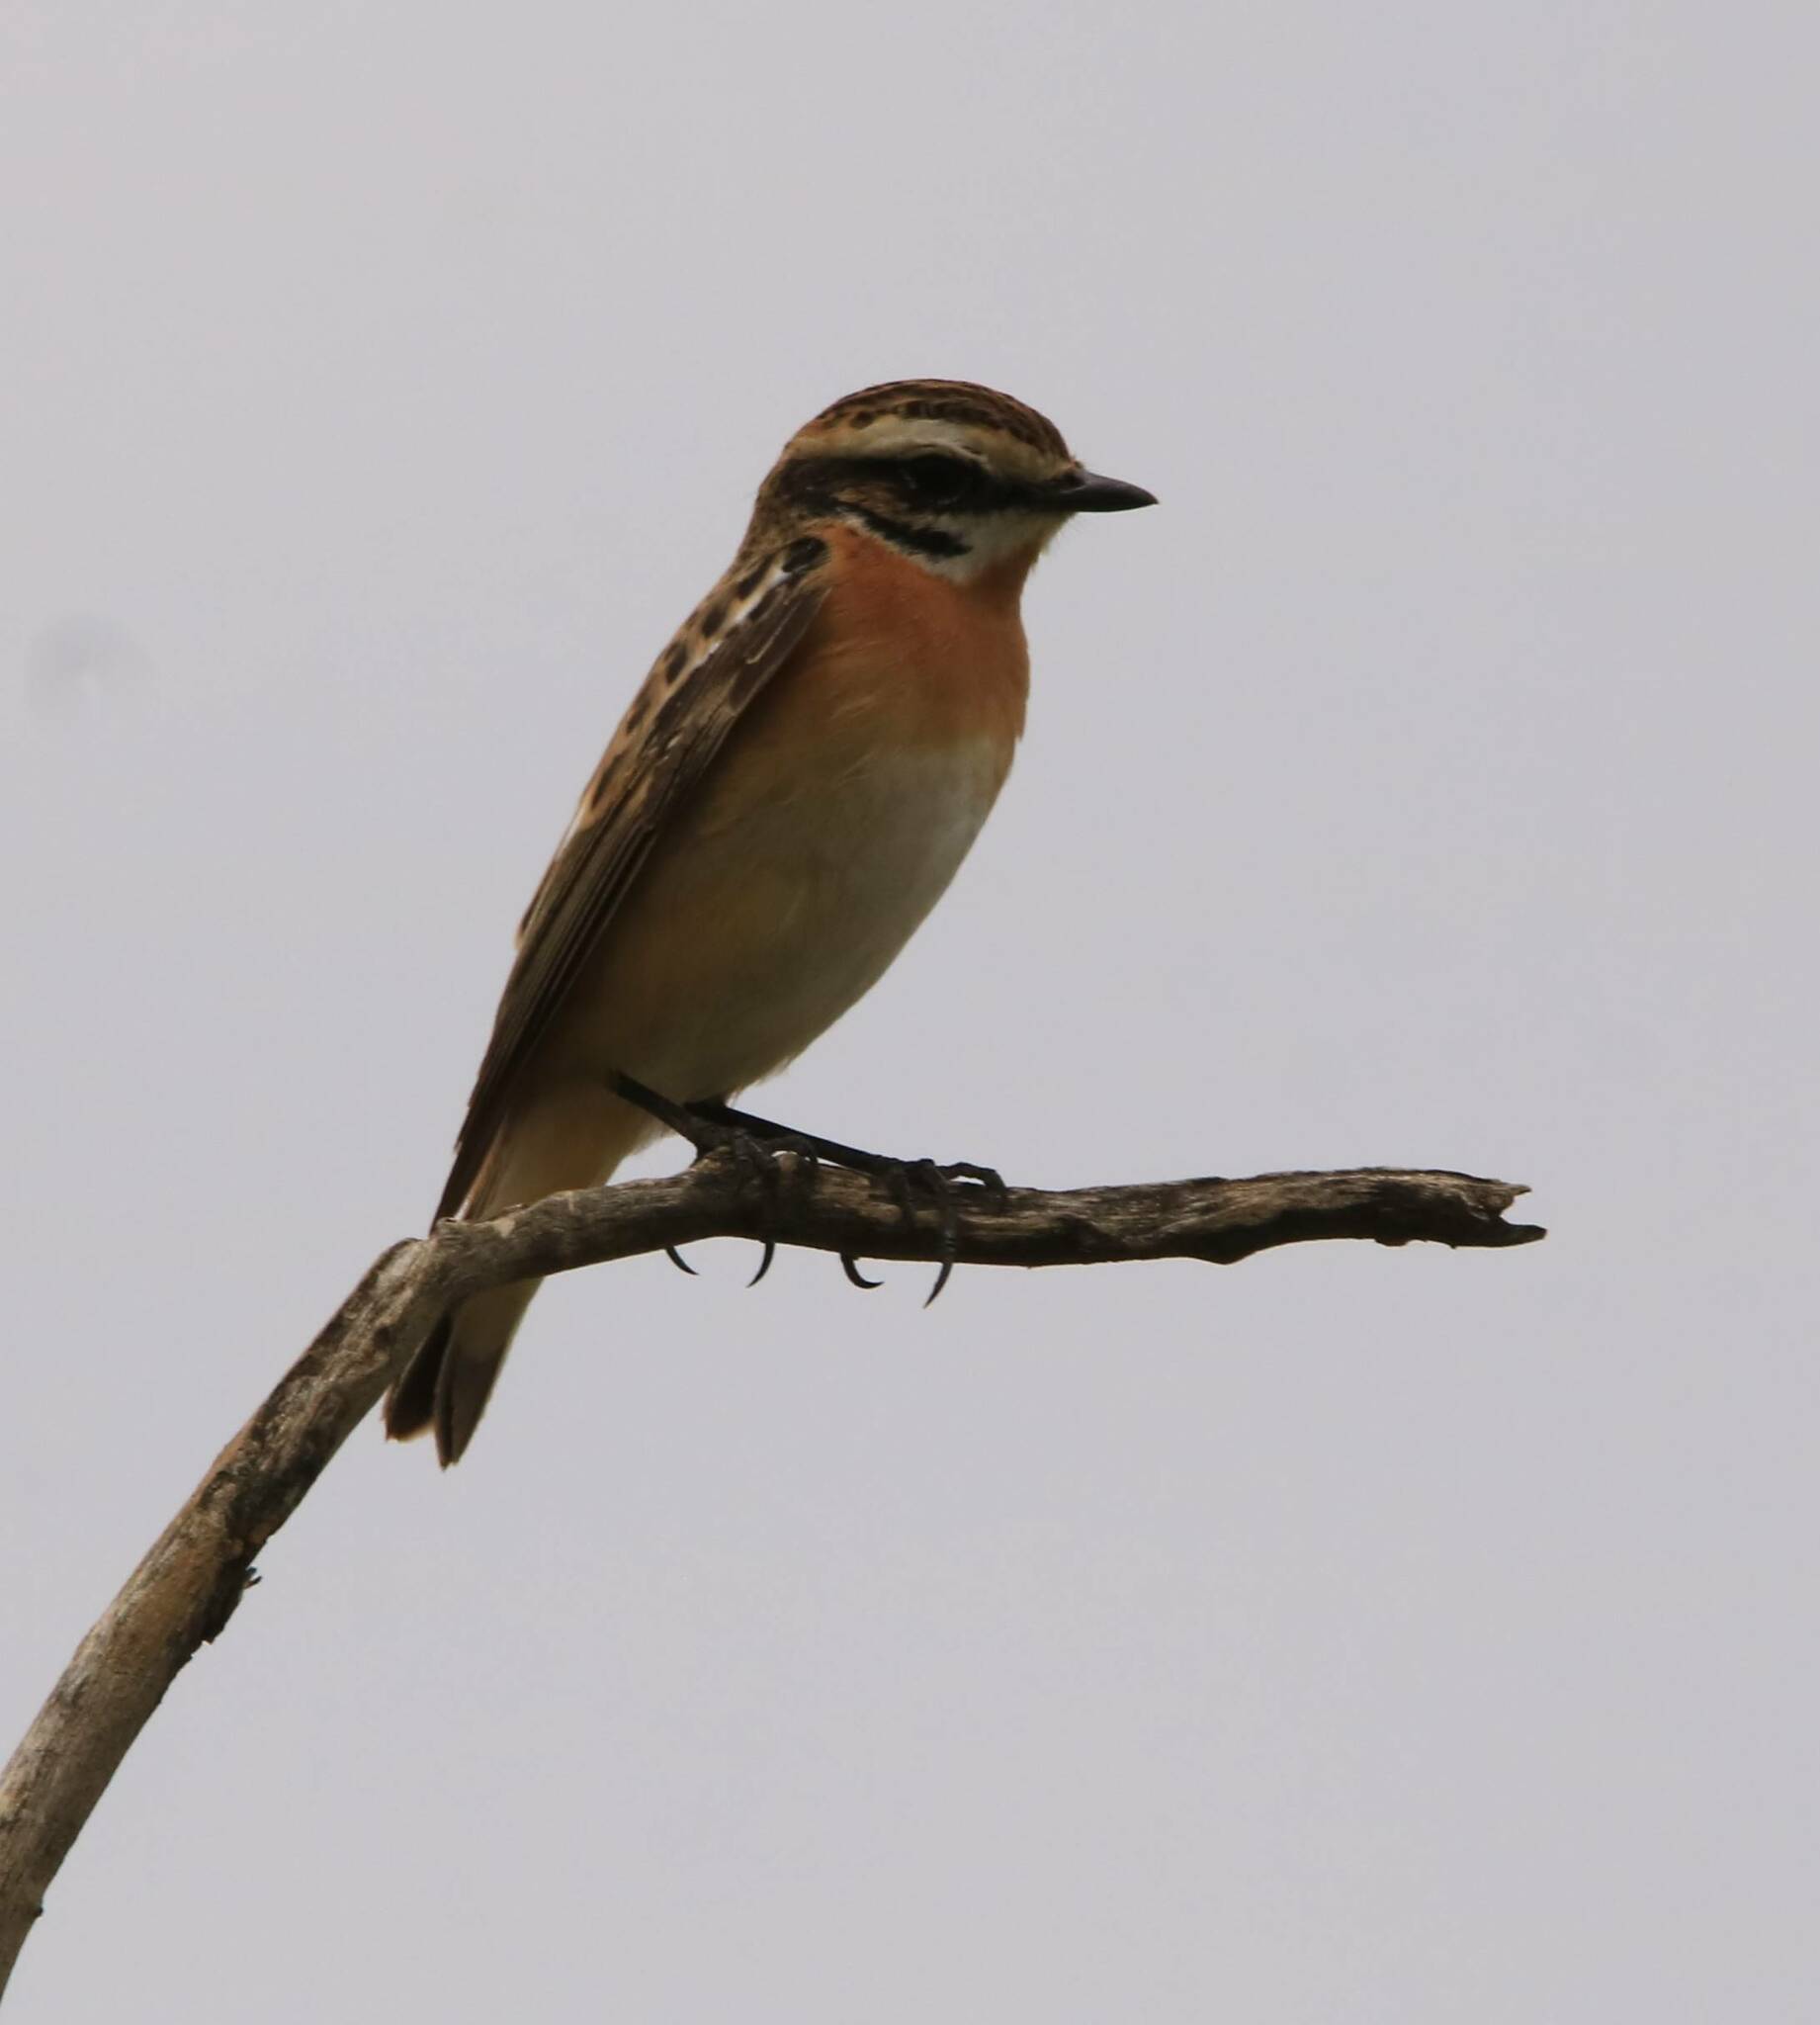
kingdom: Animalia
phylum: Chordata
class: Aves
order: Passeriformes
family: Muscicapidae
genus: Saxicola
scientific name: Saxicola rubetra
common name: Whinchat
